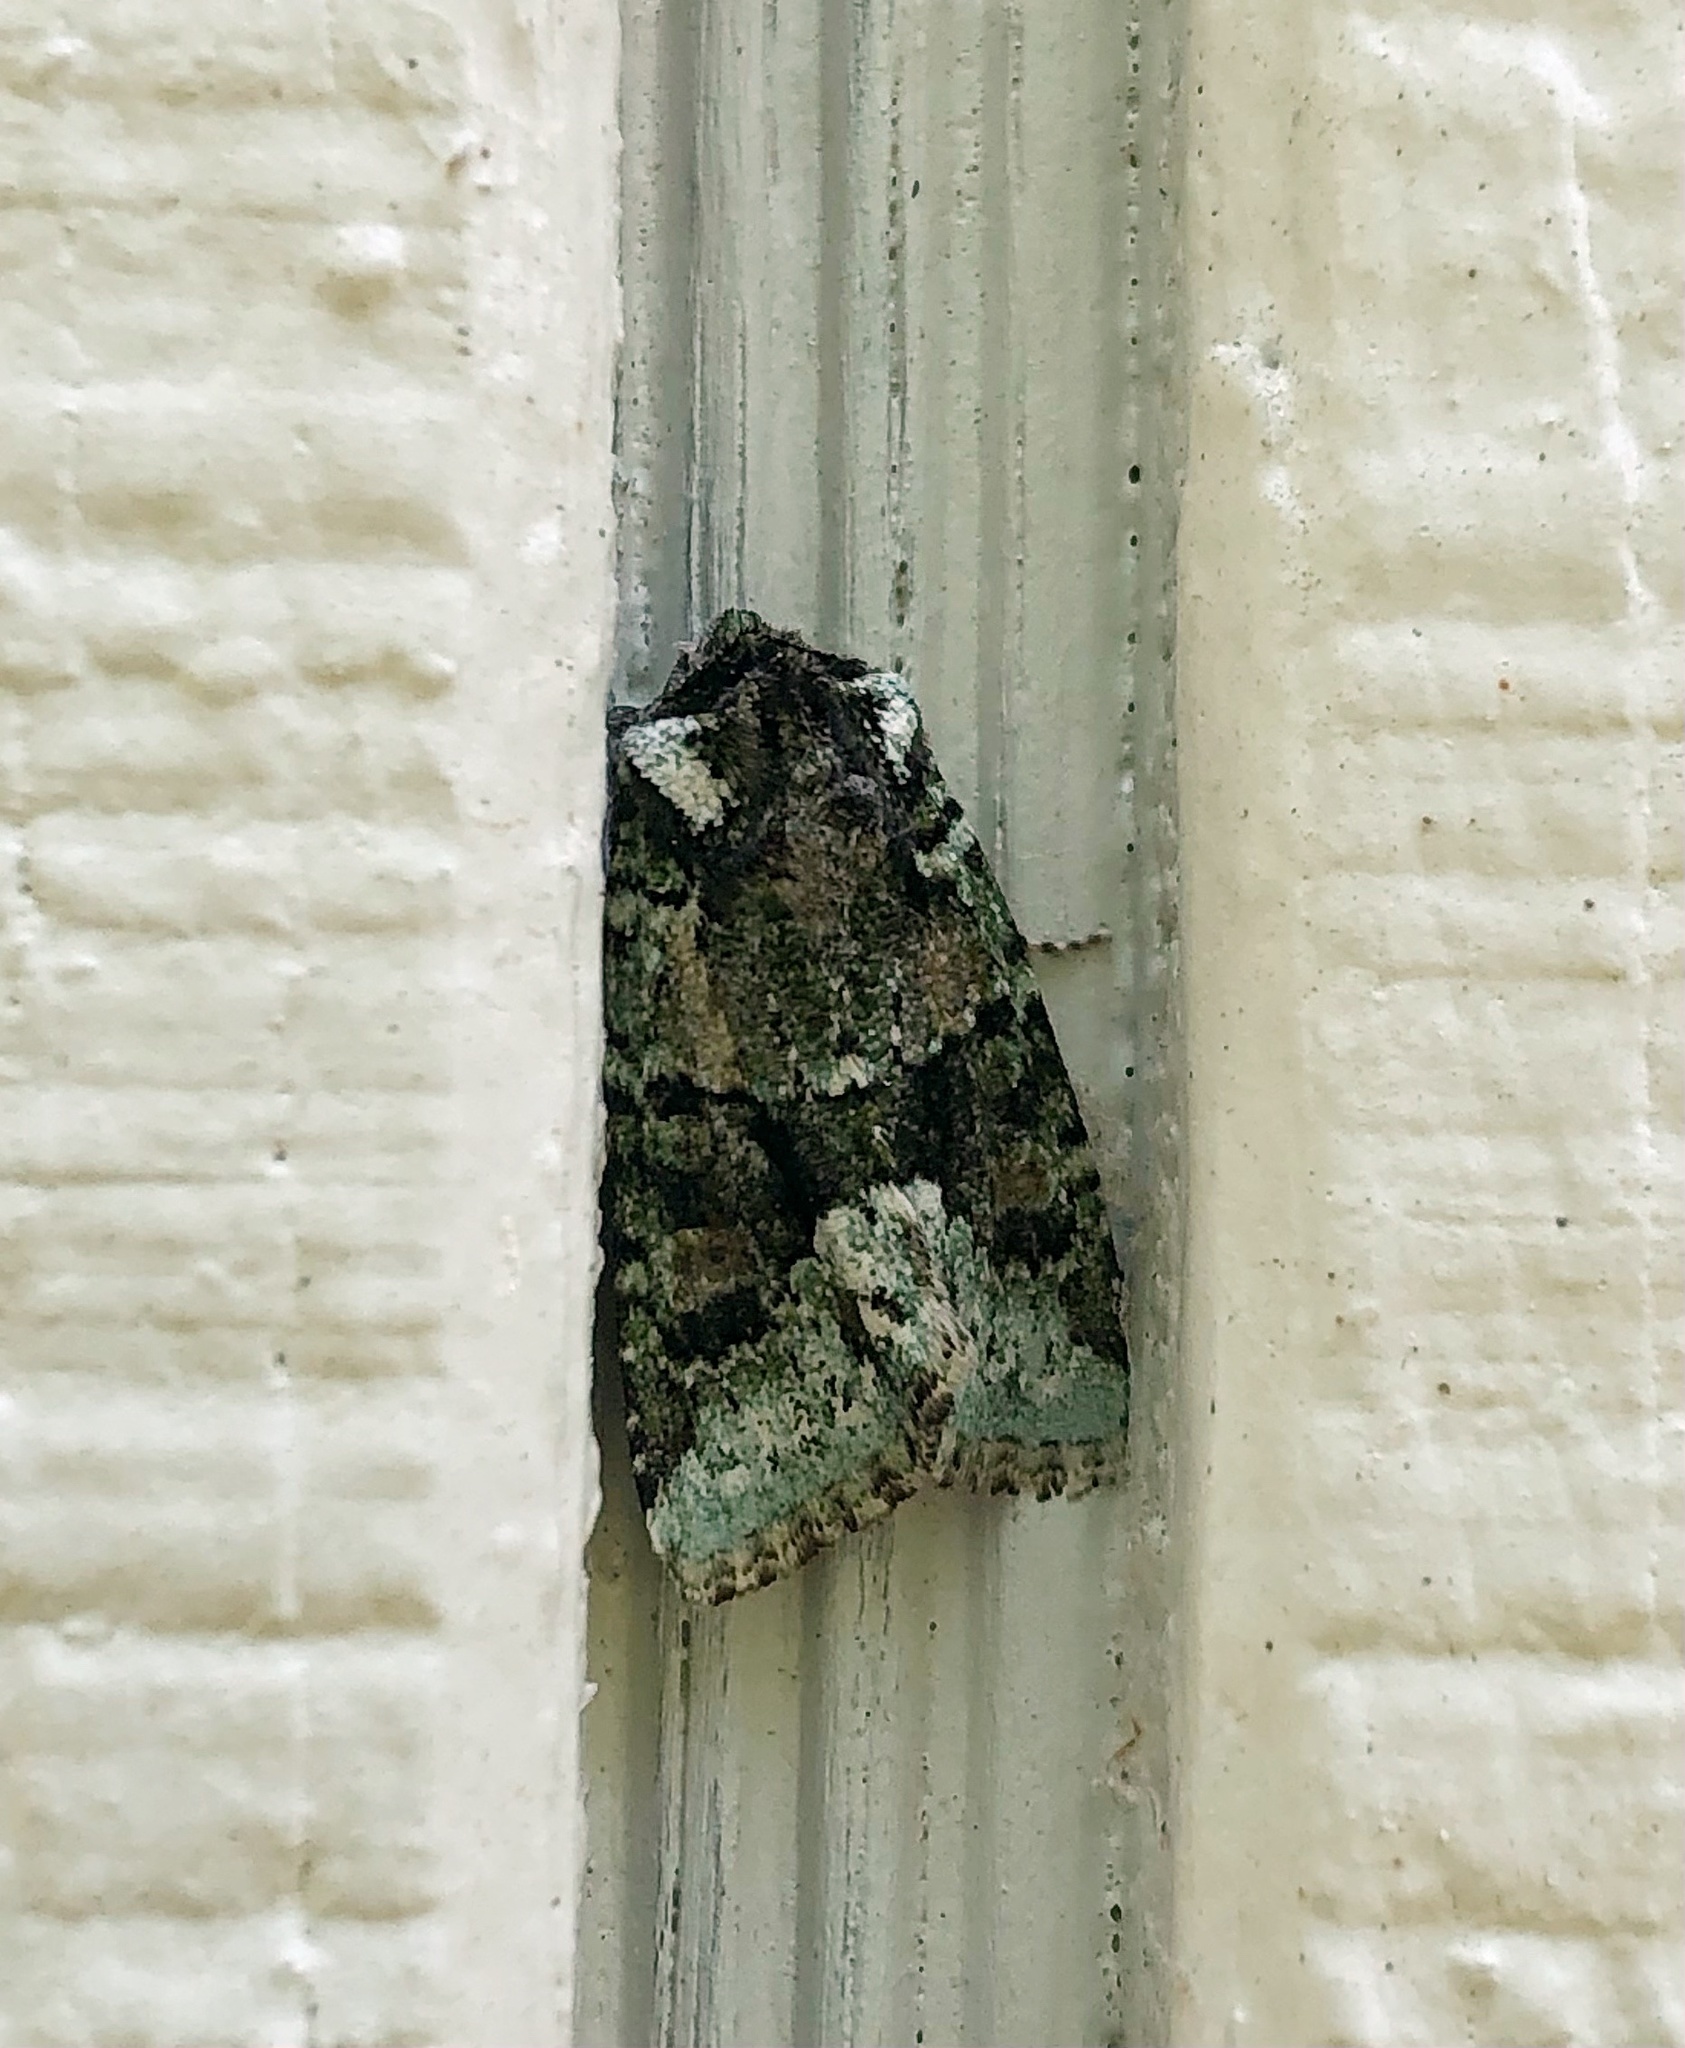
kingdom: Animalia
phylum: Arthropoda
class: Insecta
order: Lepidoptera
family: Noctuidae
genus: Lacinipolia
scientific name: Lacinipolia explicata
